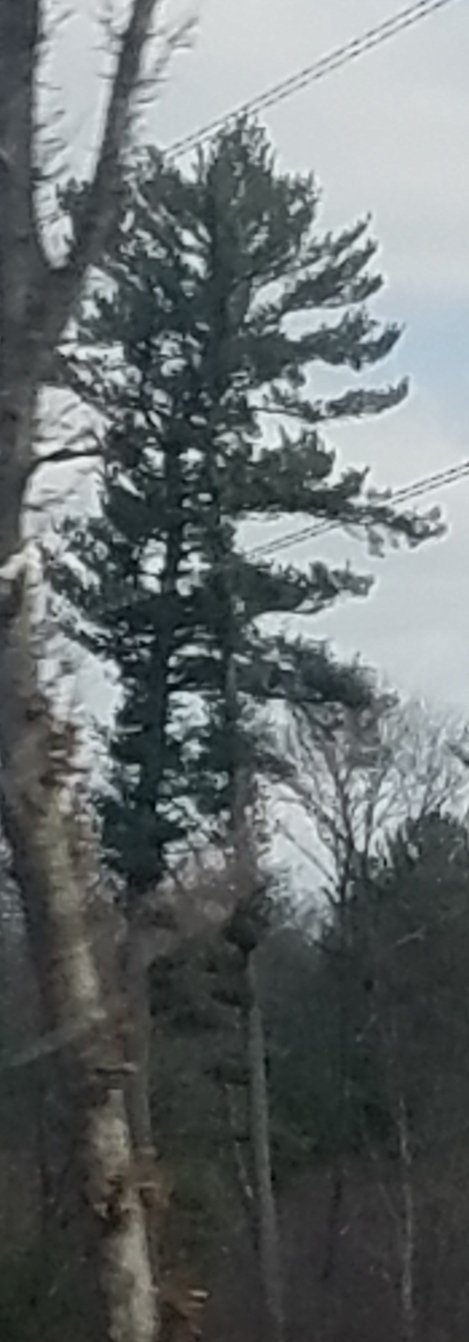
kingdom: Plantae
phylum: Tracheophyta
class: Pinopsida
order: Pinales
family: Pinaceae
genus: Pinus
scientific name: Pinus strobus
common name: Weymouth pine
